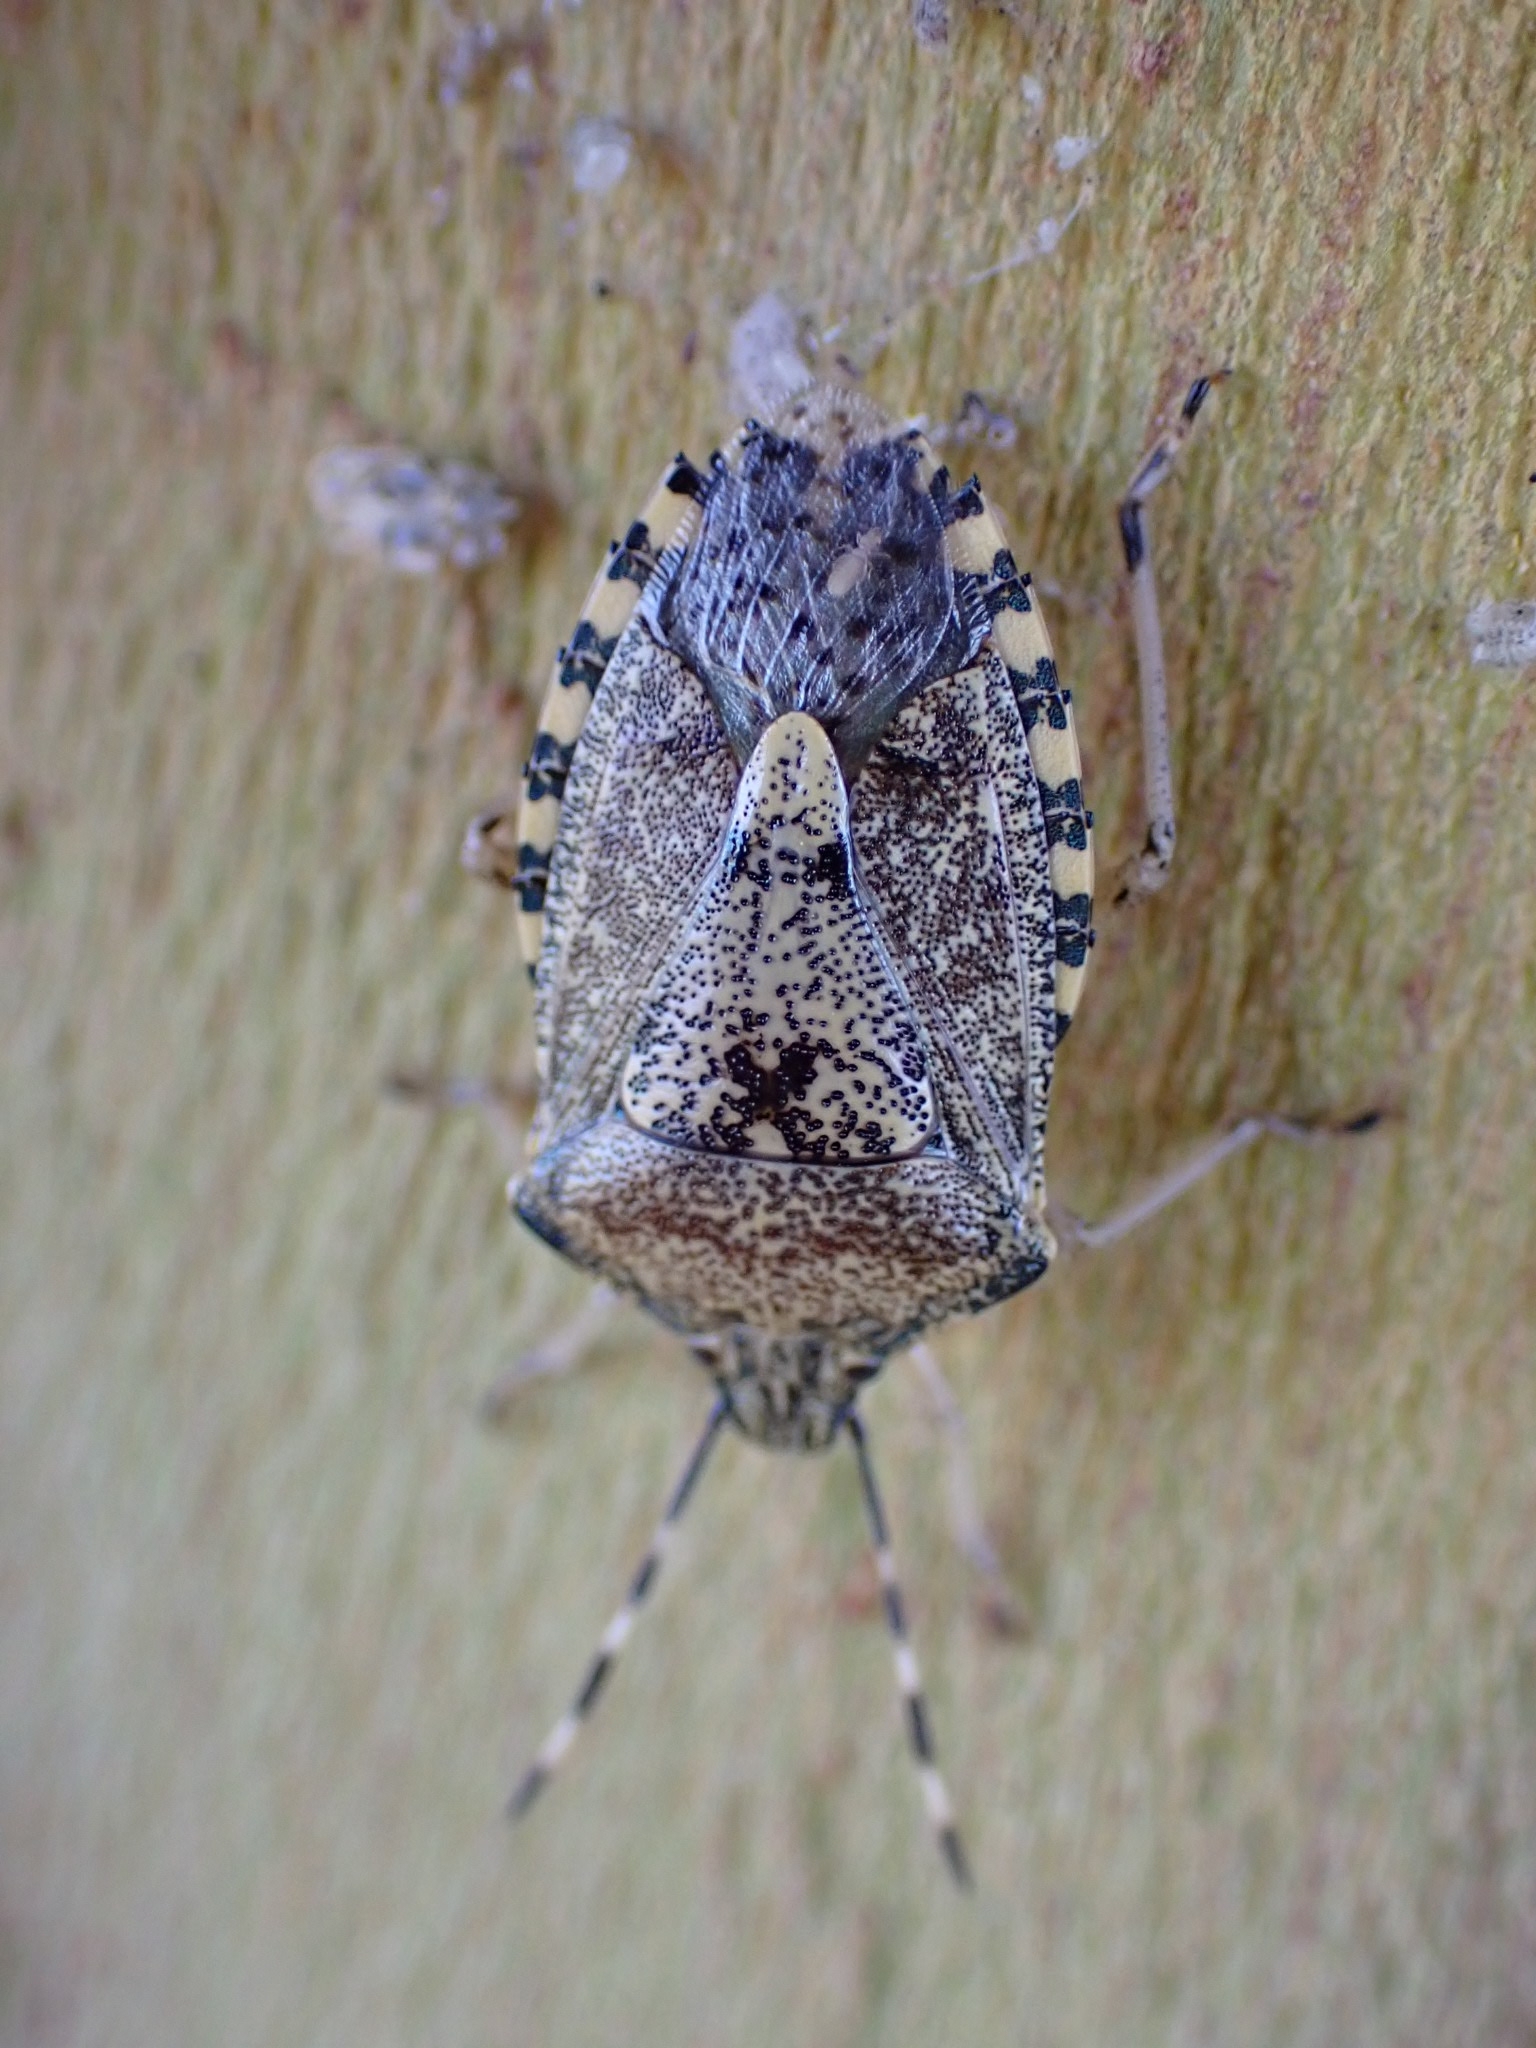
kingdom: Animalia
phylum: Arthropoda
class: Insecta
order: Hemiptera
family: Pentatomidae
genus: Rhaphigaster
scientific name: Rhaphigaster nebulosa
